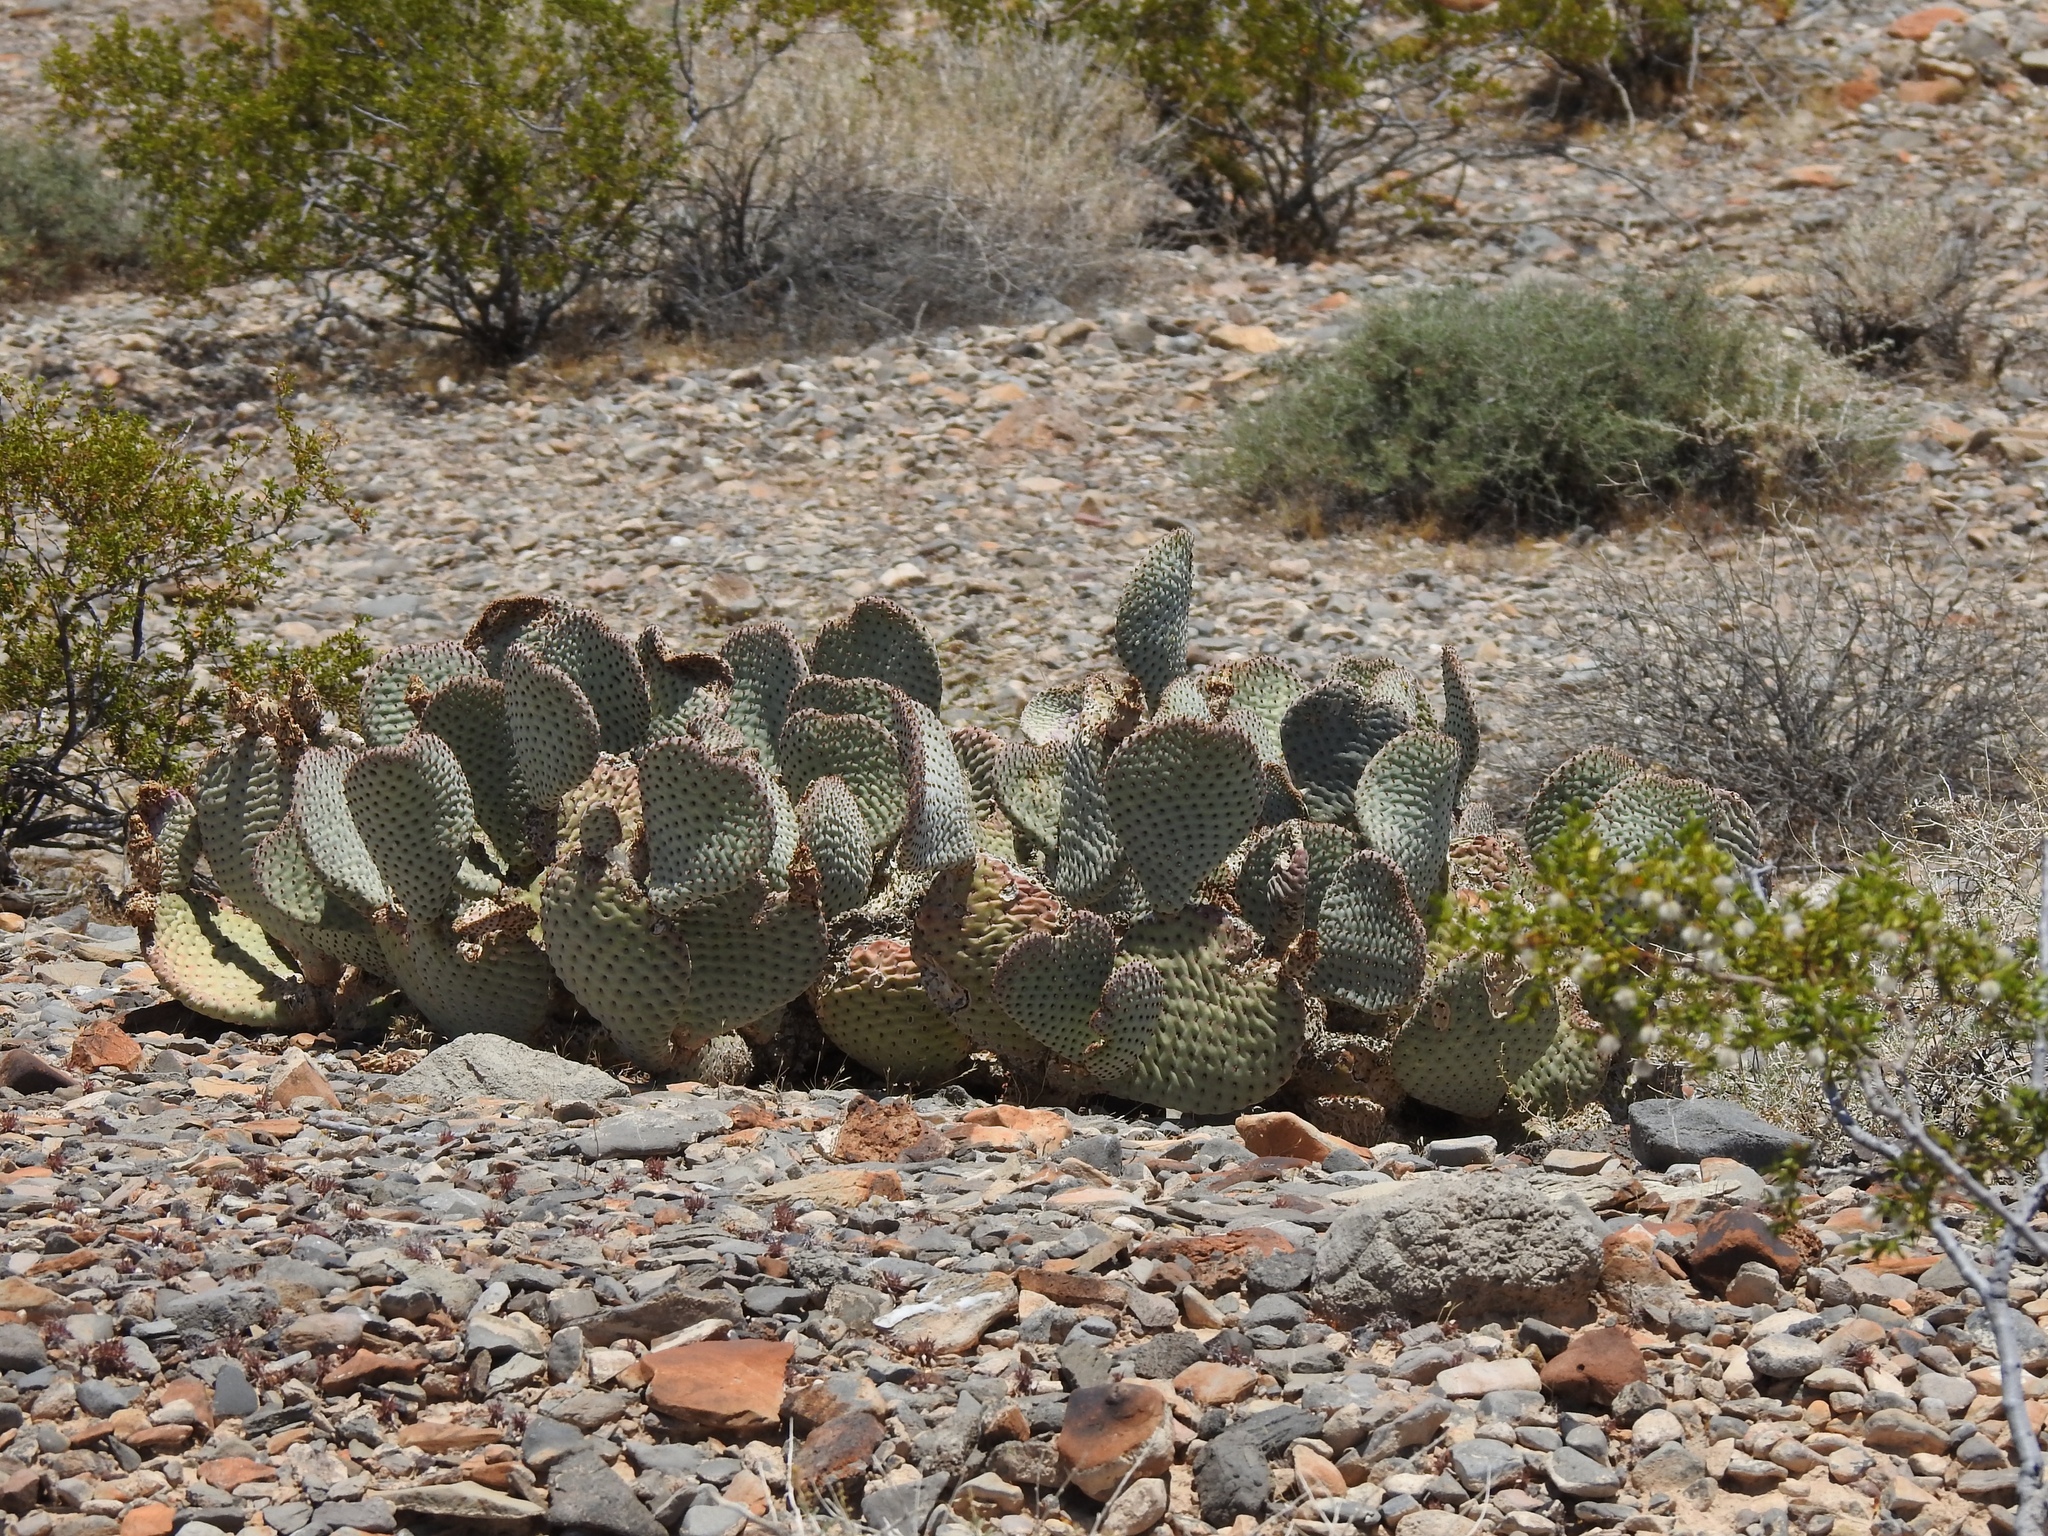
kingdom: Plantae
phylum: Tracheophyta
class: Magnoliopsida
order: Caryophyllales
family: Cactaceae
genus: Opuntia
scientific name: Opuntia basilaris
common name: Beavertail prickly-pear
